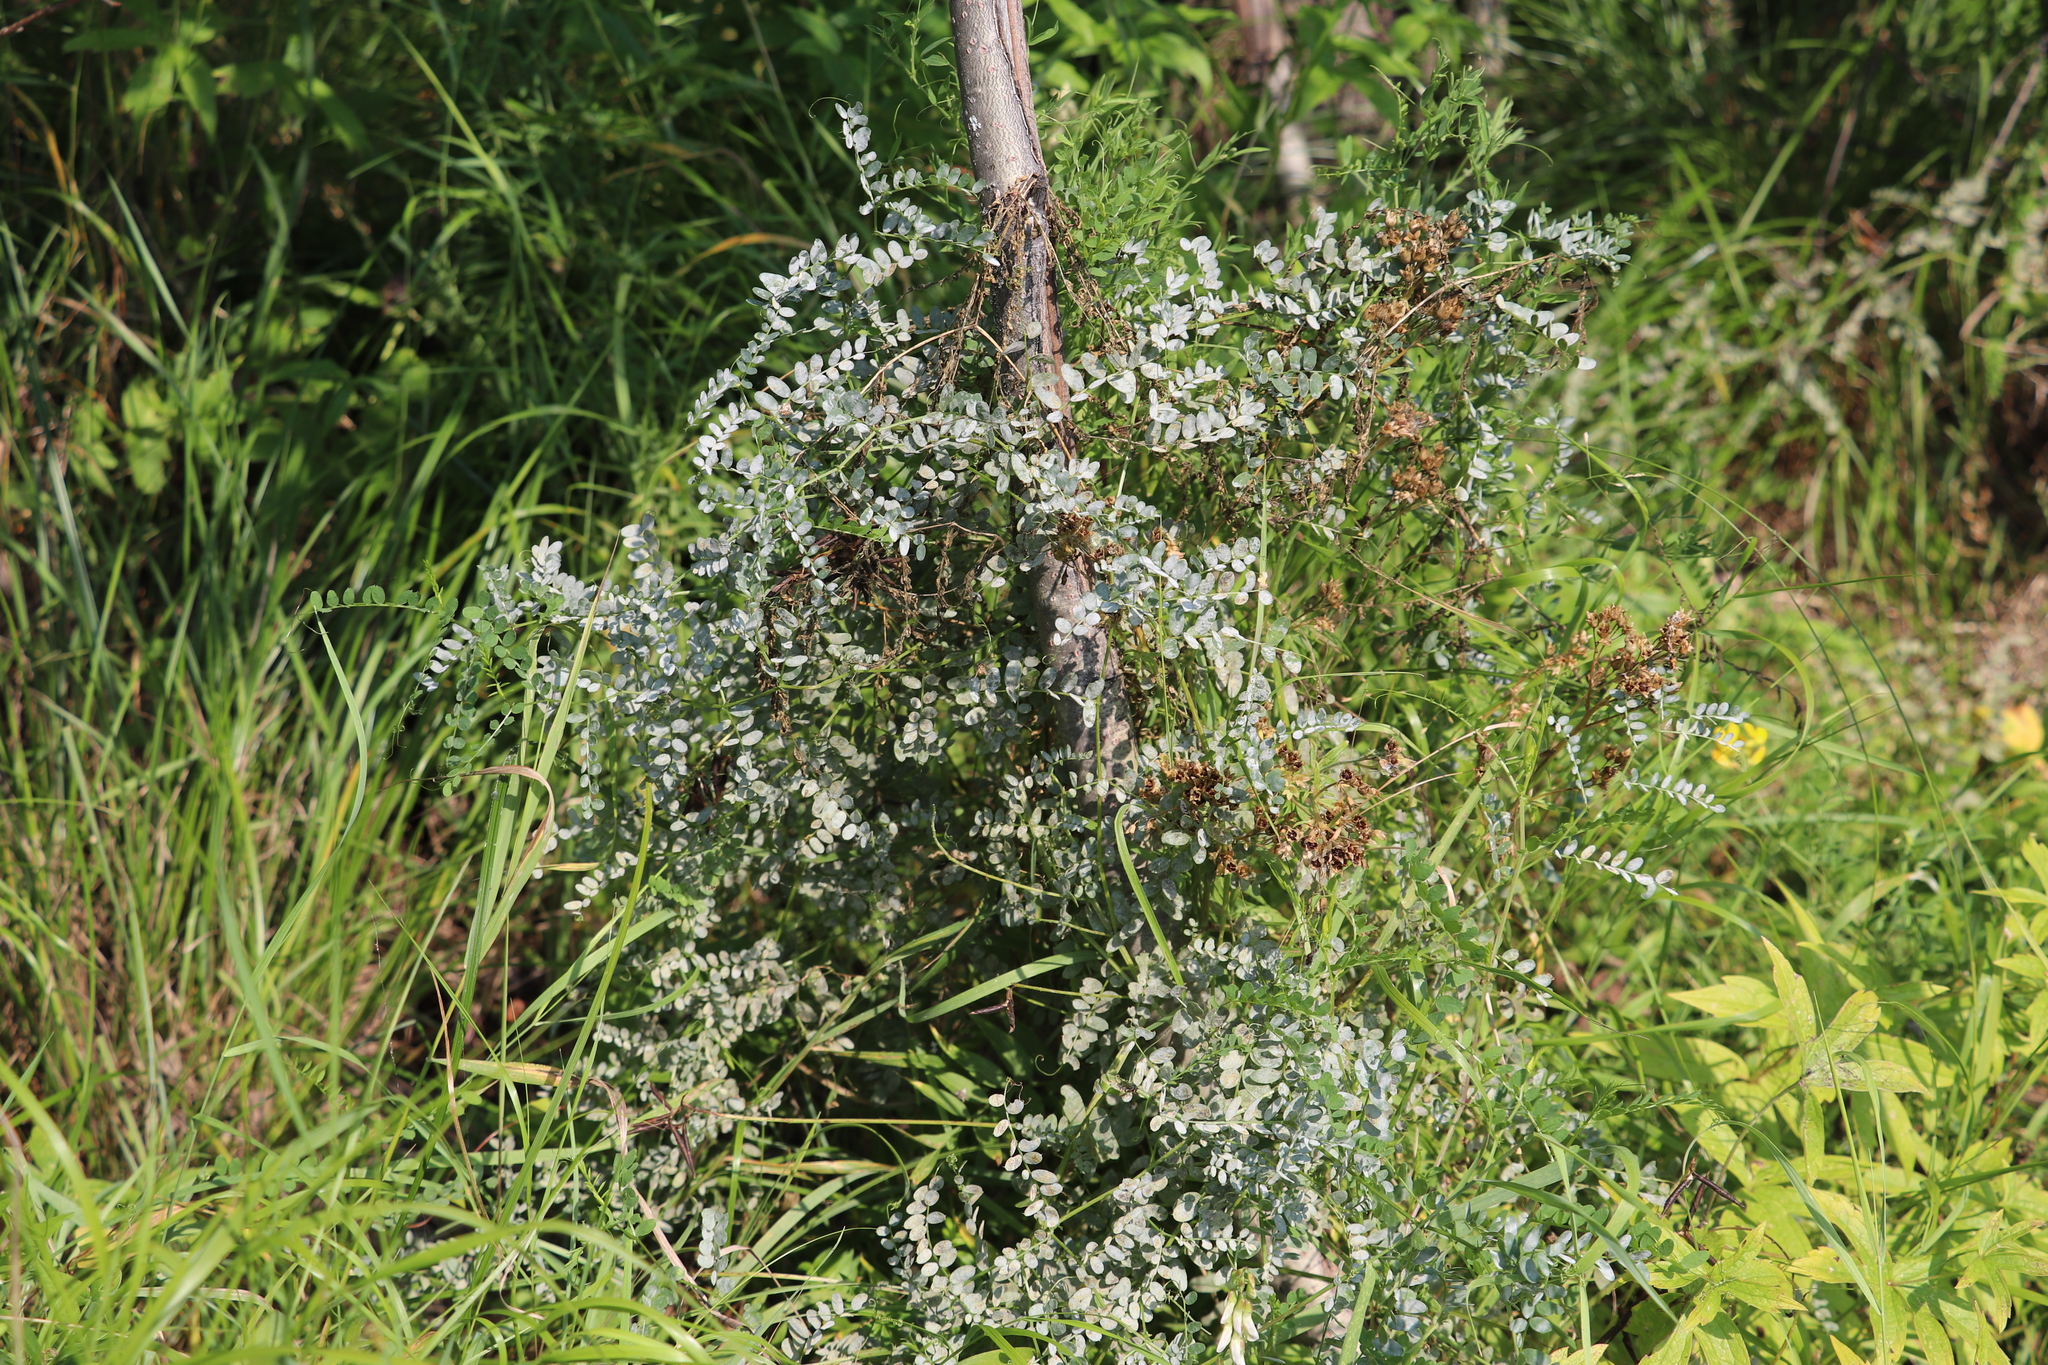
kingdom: Plantae
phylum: Tracheophyta
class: Magnoliopsida
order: Fabales
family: Fabaceae
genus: Vicia
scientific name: Vicia sylvatica
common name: Wood vetch
